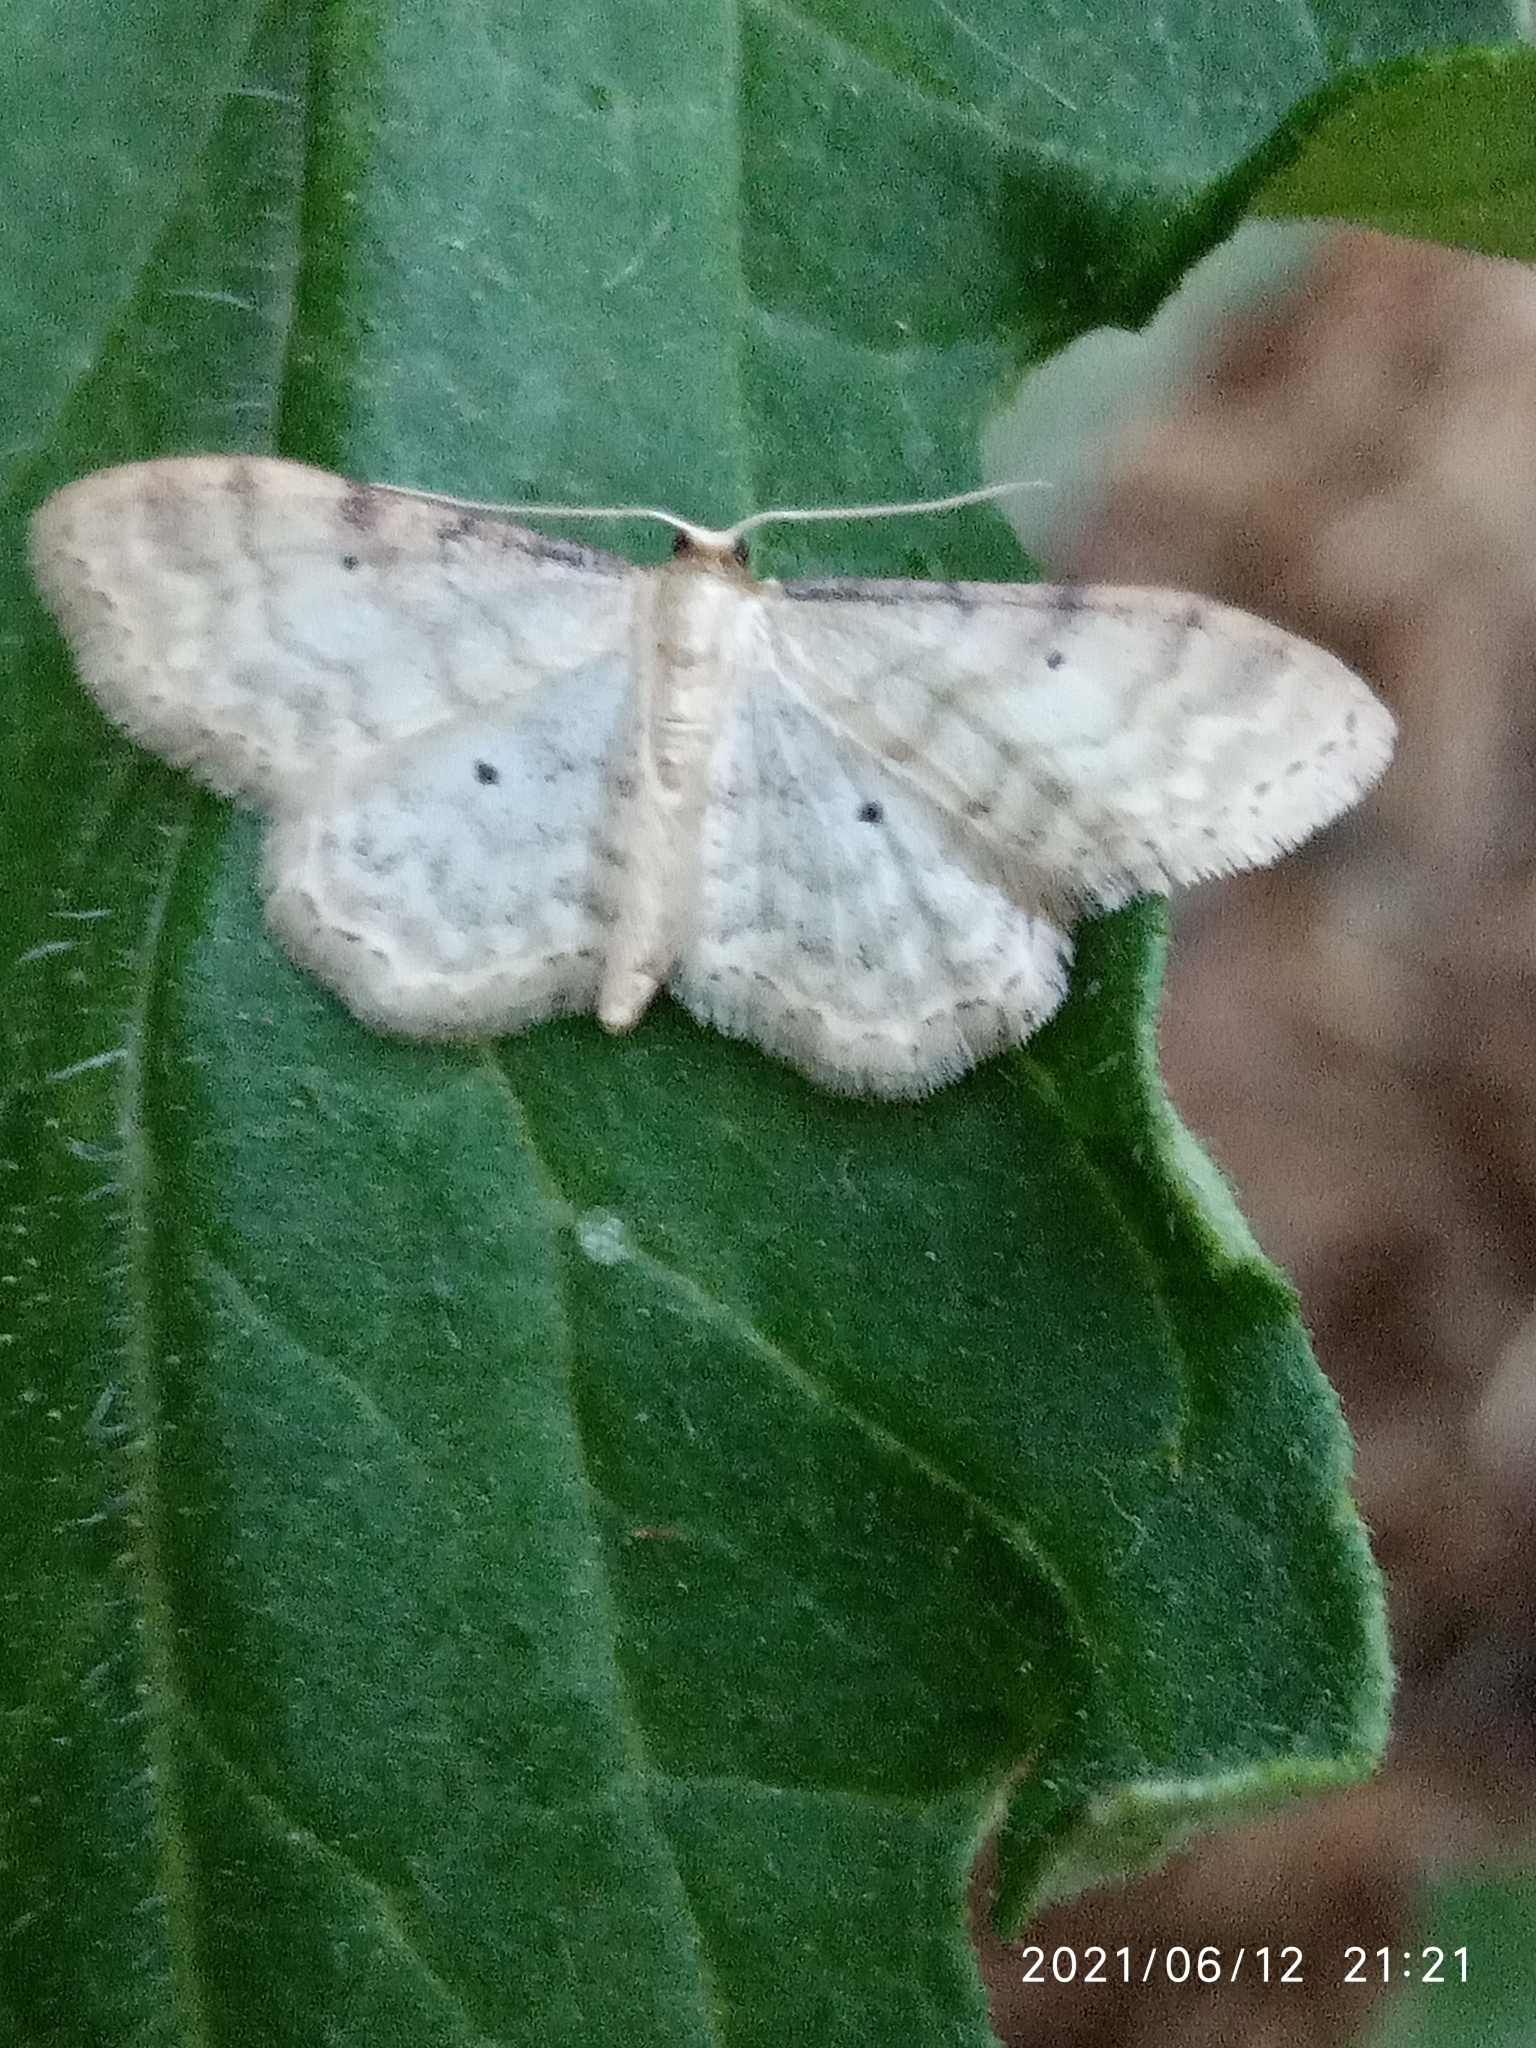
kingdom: Animalia
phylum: Arthropoda
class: Insecta
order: Lepidoptera
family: Geometridae
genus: Idaea
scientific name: Idaea fuscovenosa
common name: Dwarf cream wave
